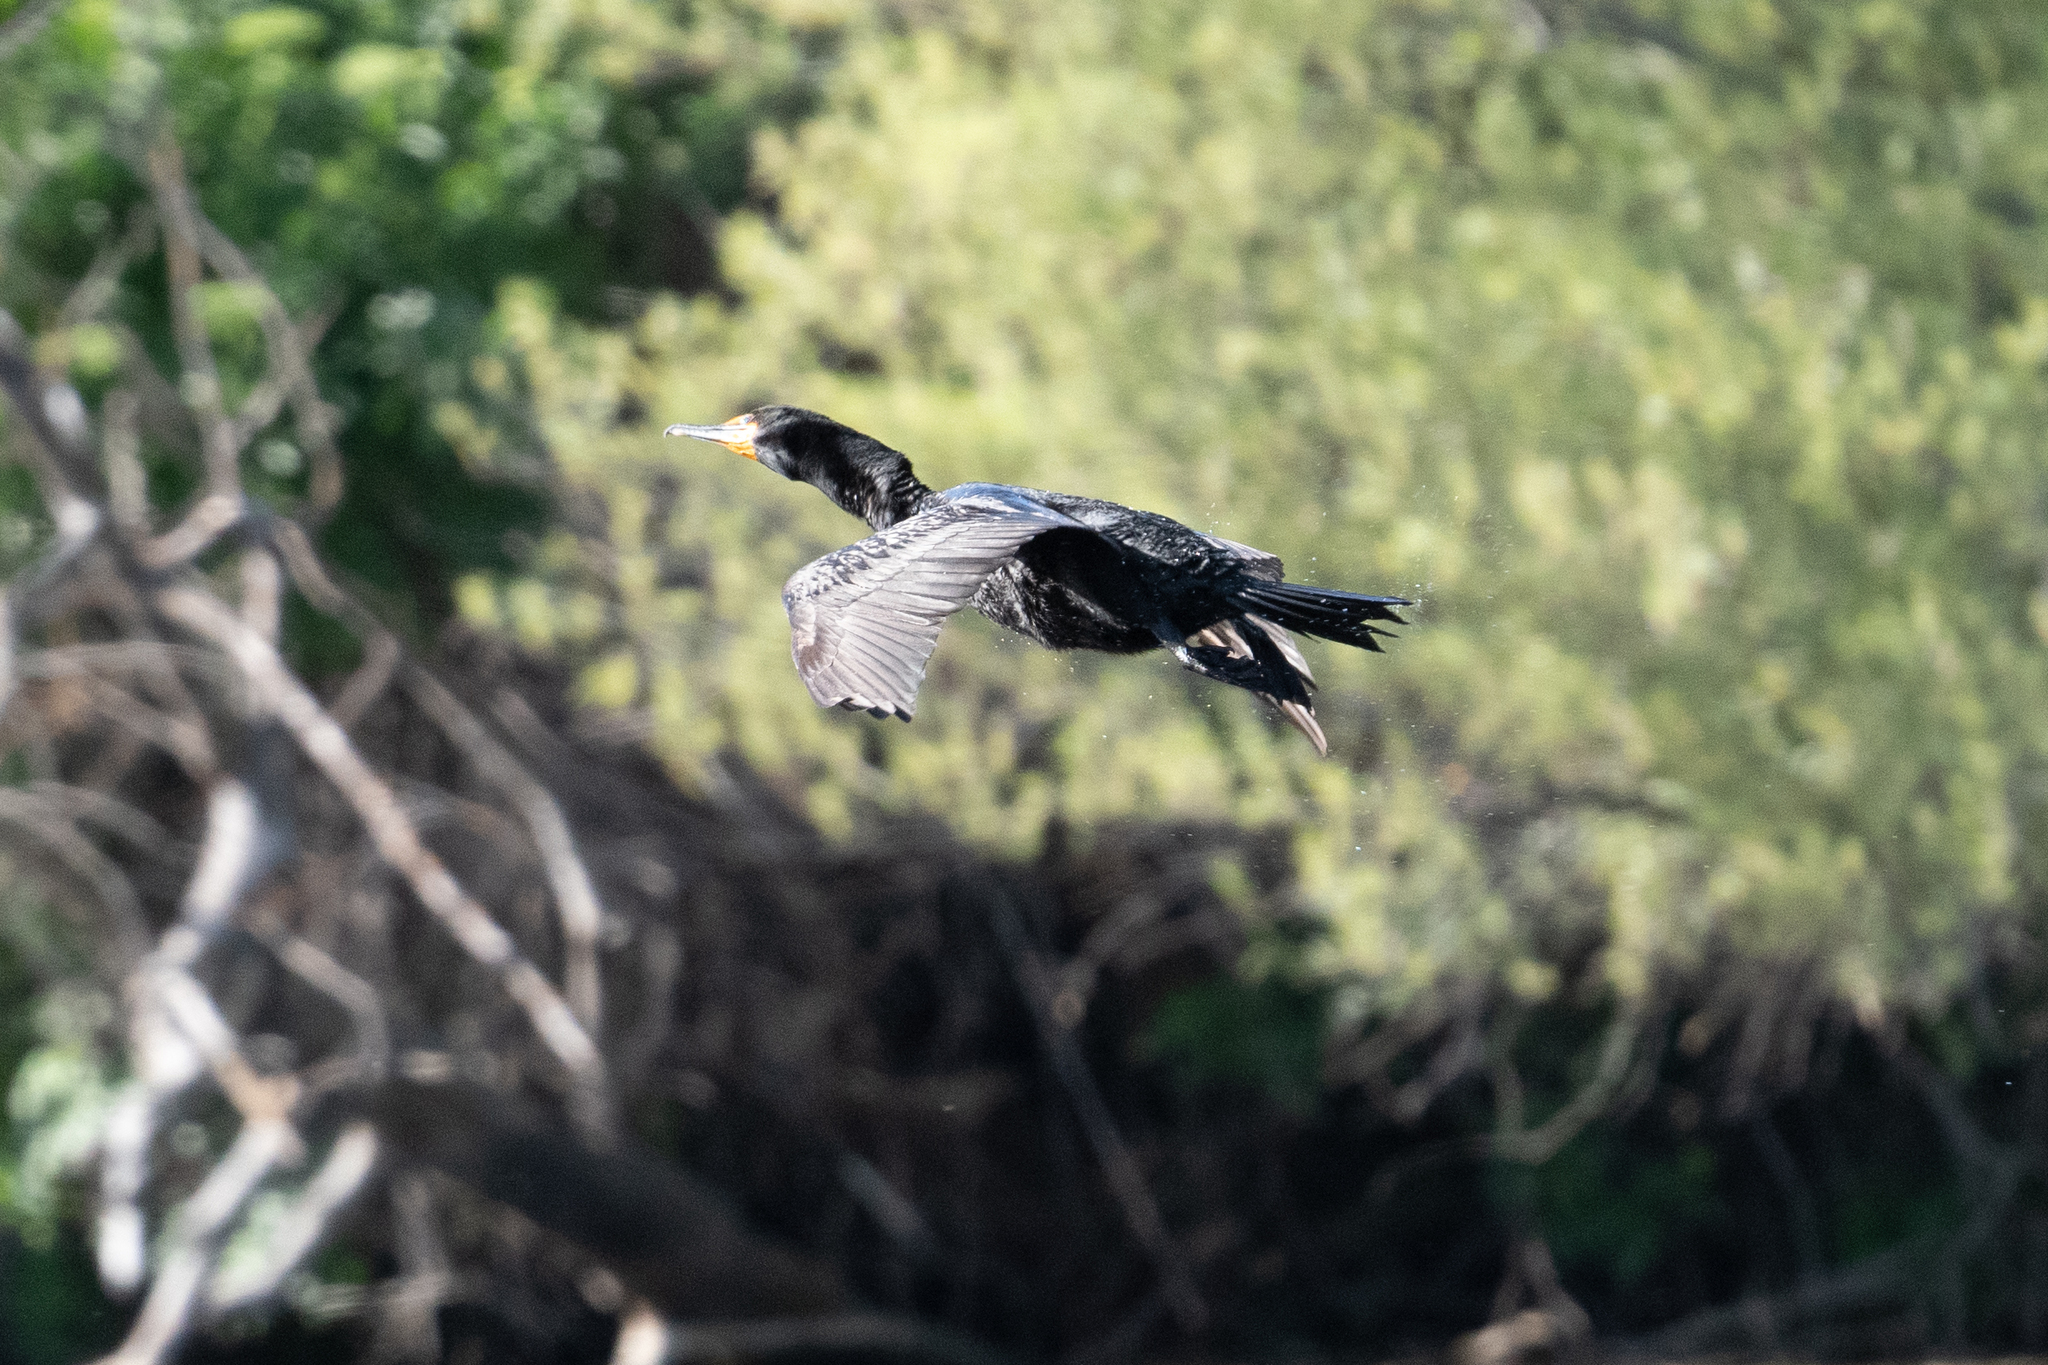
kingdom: Animalia
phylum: Chordata
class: Aves
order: Suliformes
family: Phalacrocoracidae
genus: Phalacrocorax
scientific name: Phalacrocorax auritus
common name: Double-crested cormorant
